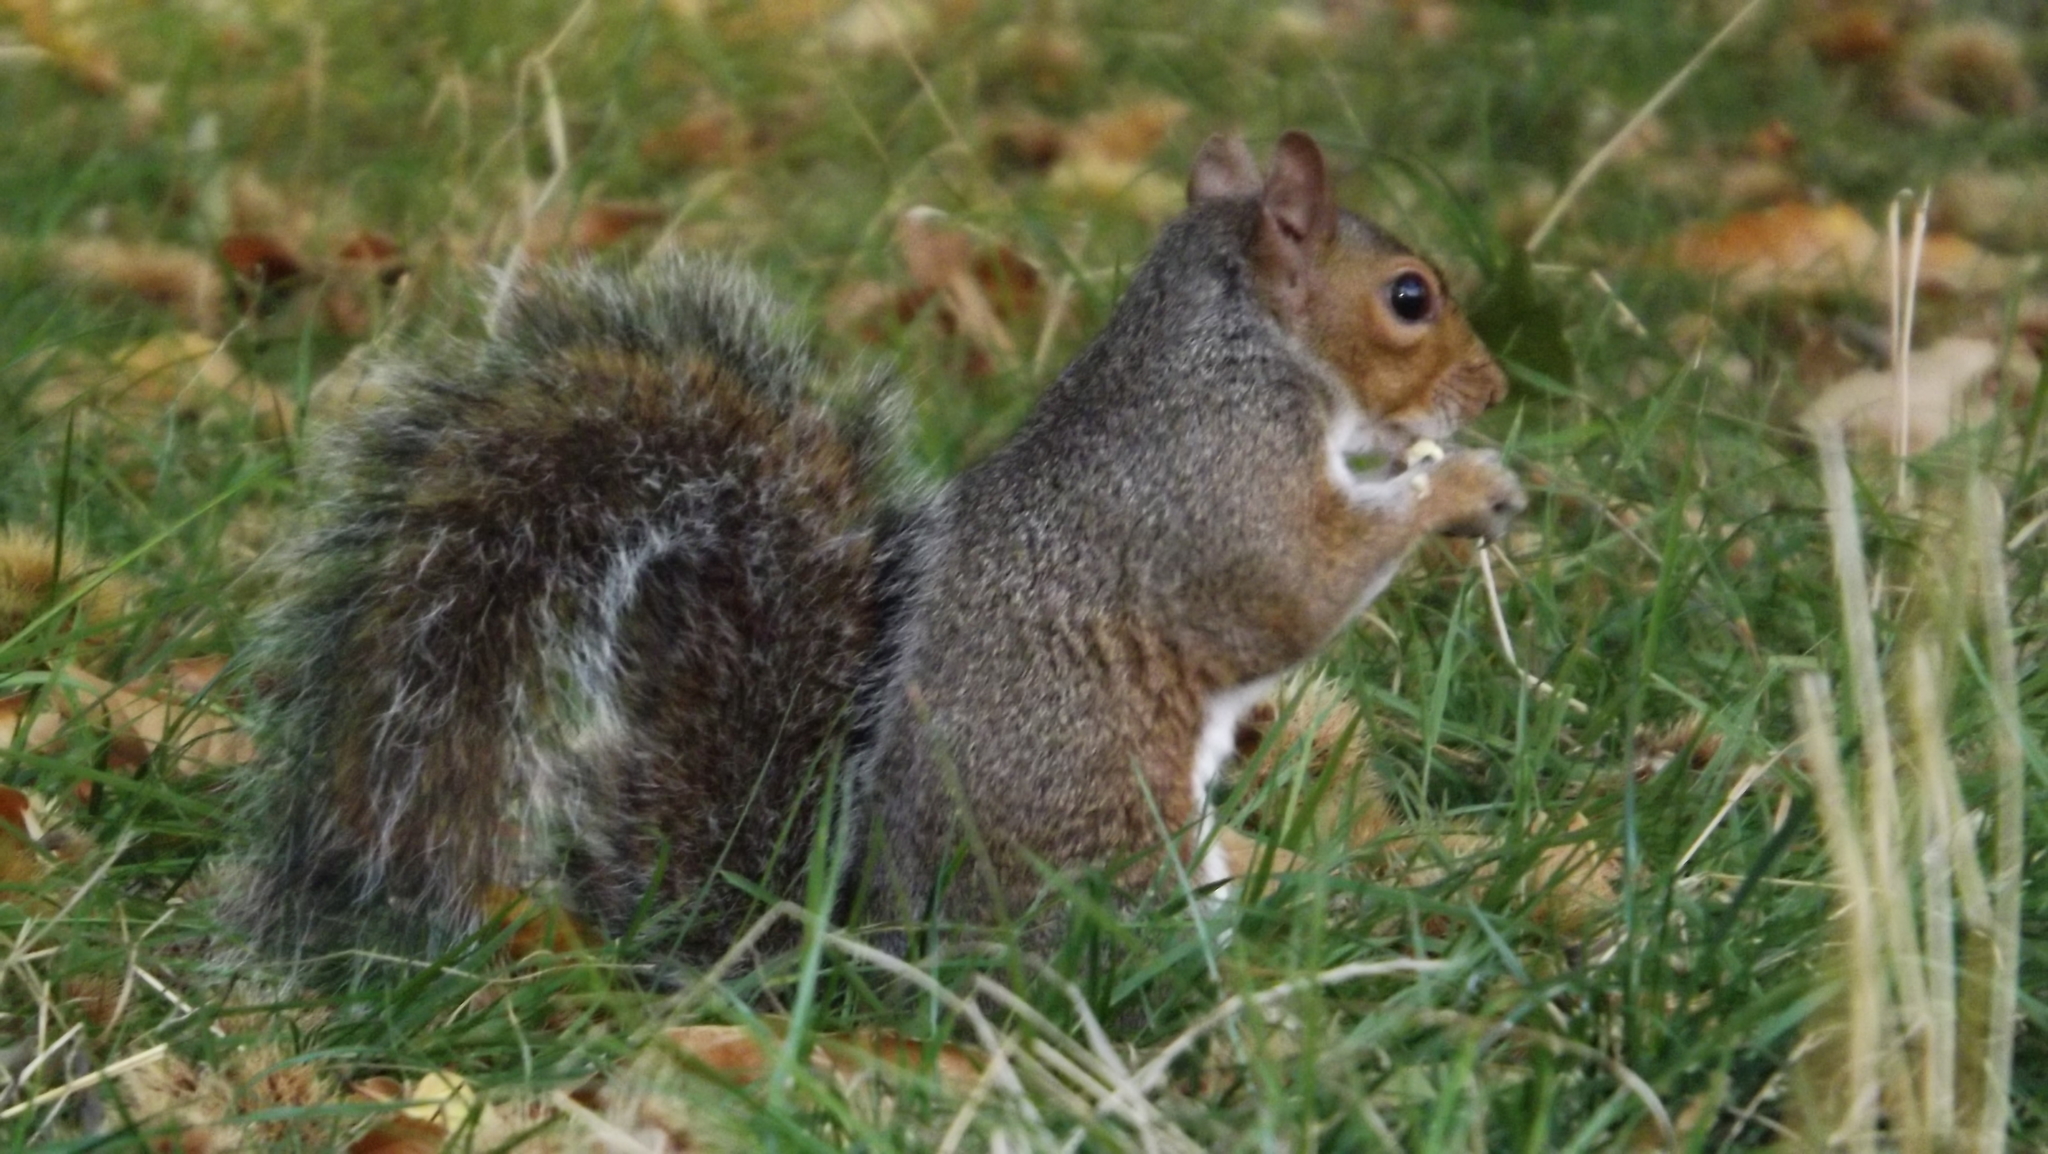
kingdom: Animalia
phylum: Chordata
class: Mammalia
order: Rodentia
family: Sciuridae
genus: Sciurus
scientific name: Sciurus carolinensis
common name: Eastern gray squirrel
